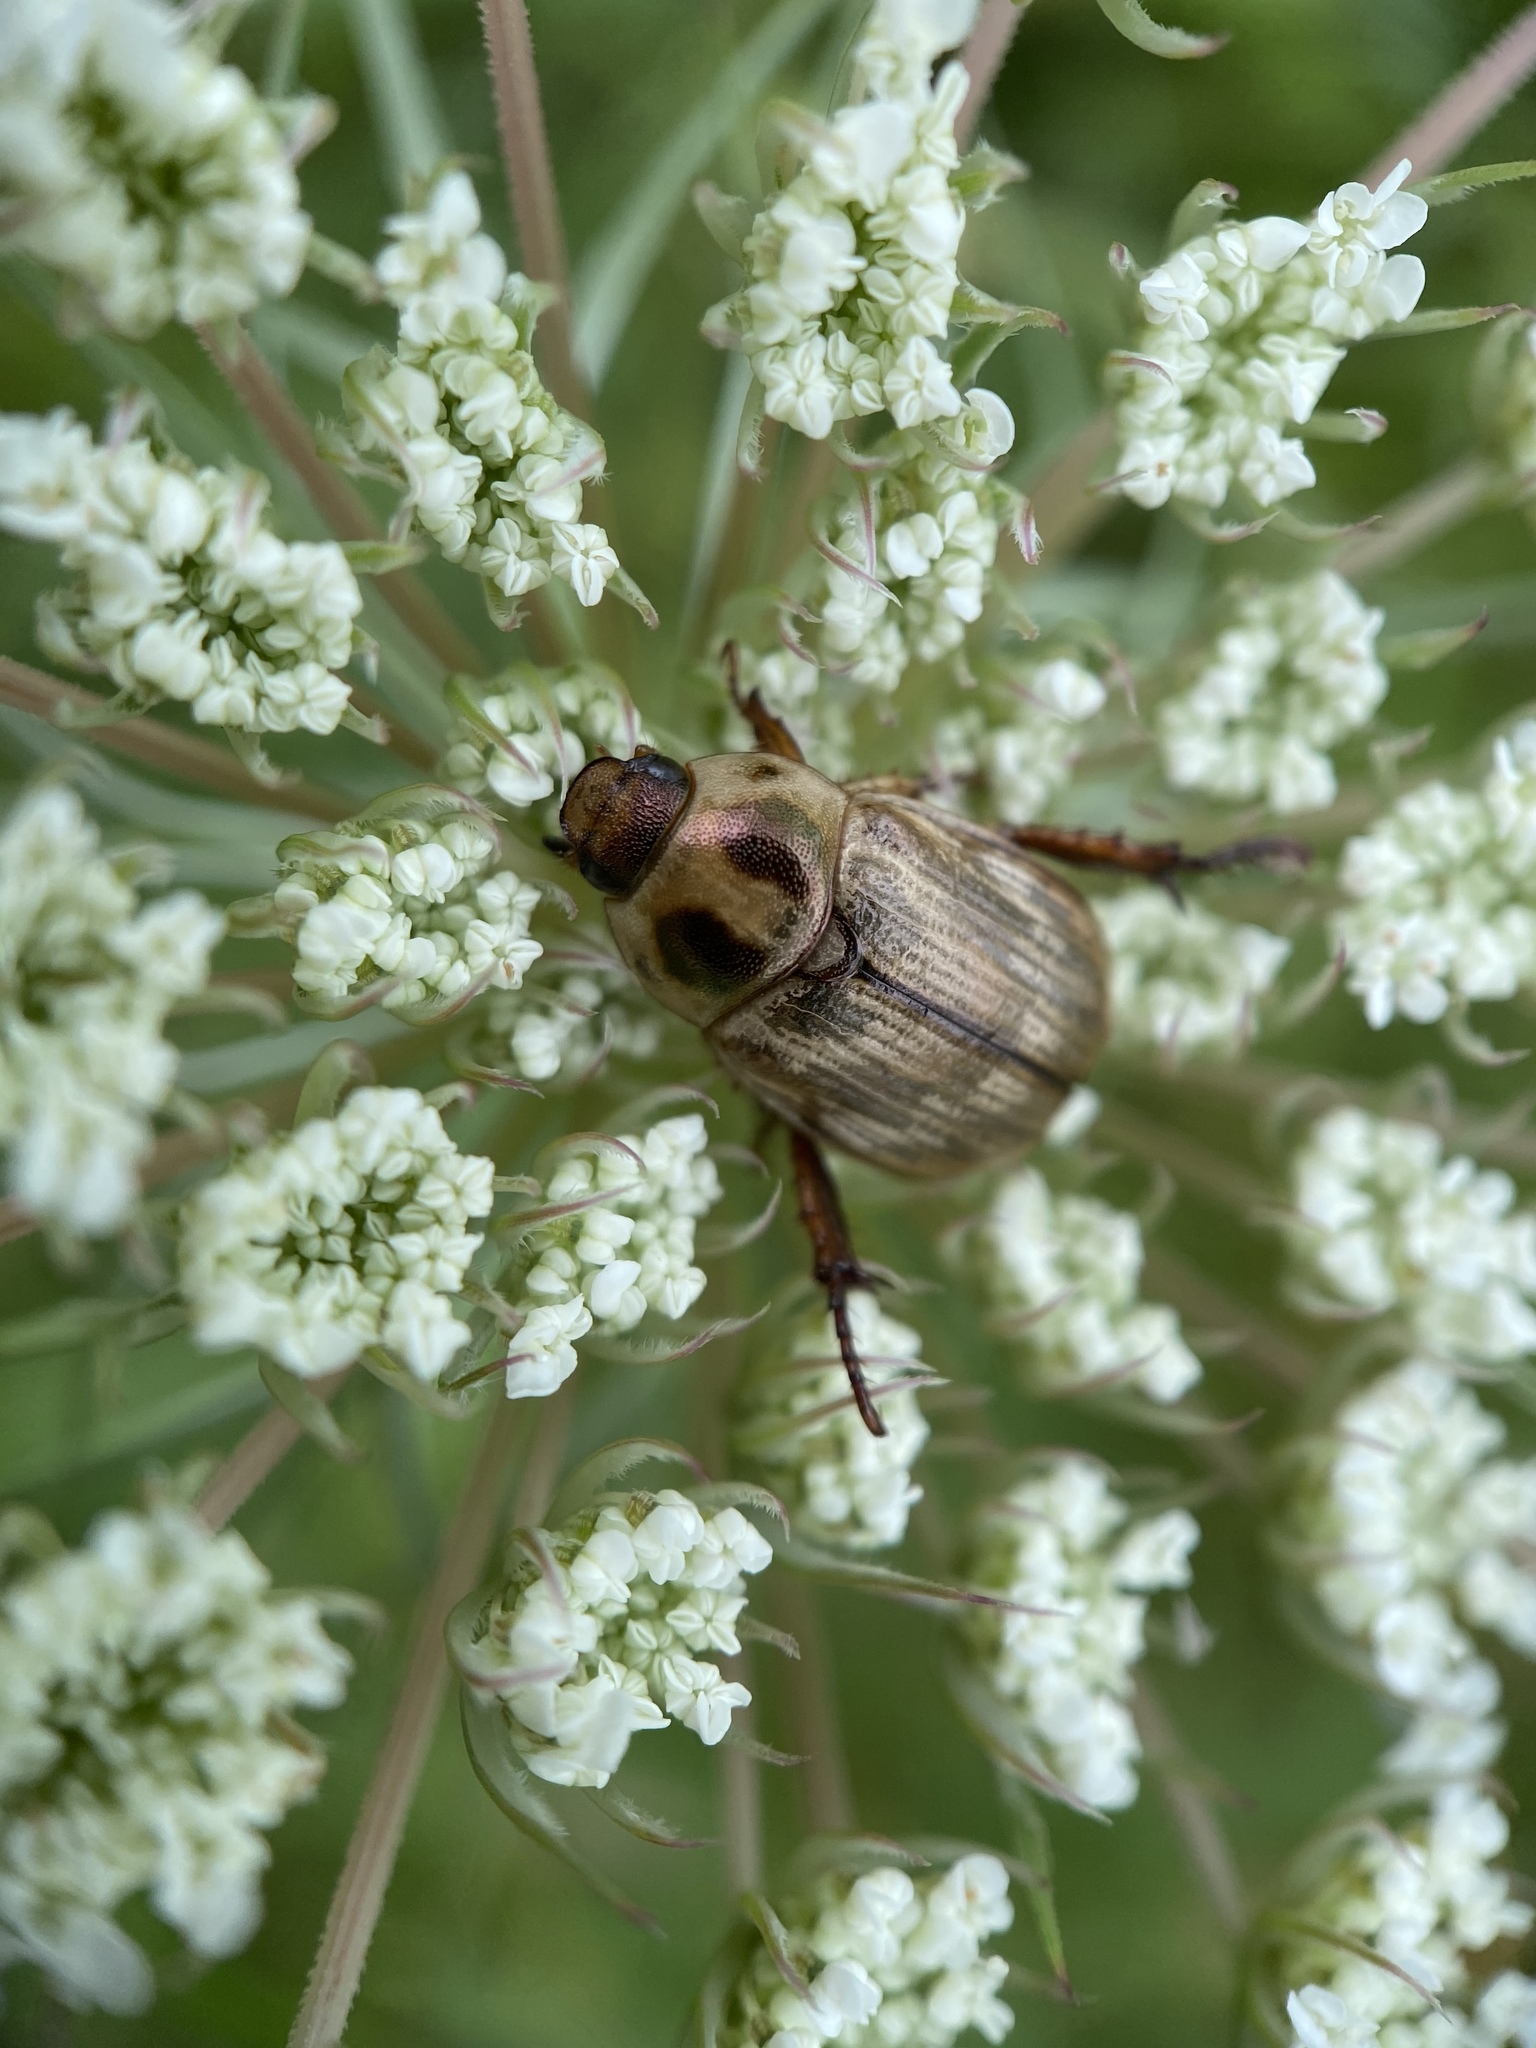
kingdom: Animalia
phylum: Arthropoda
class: Insecta
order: Coleoptera
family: Scarabaeidae
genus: Exomala
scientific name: Exomala orientalis
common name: Oriental beetle
